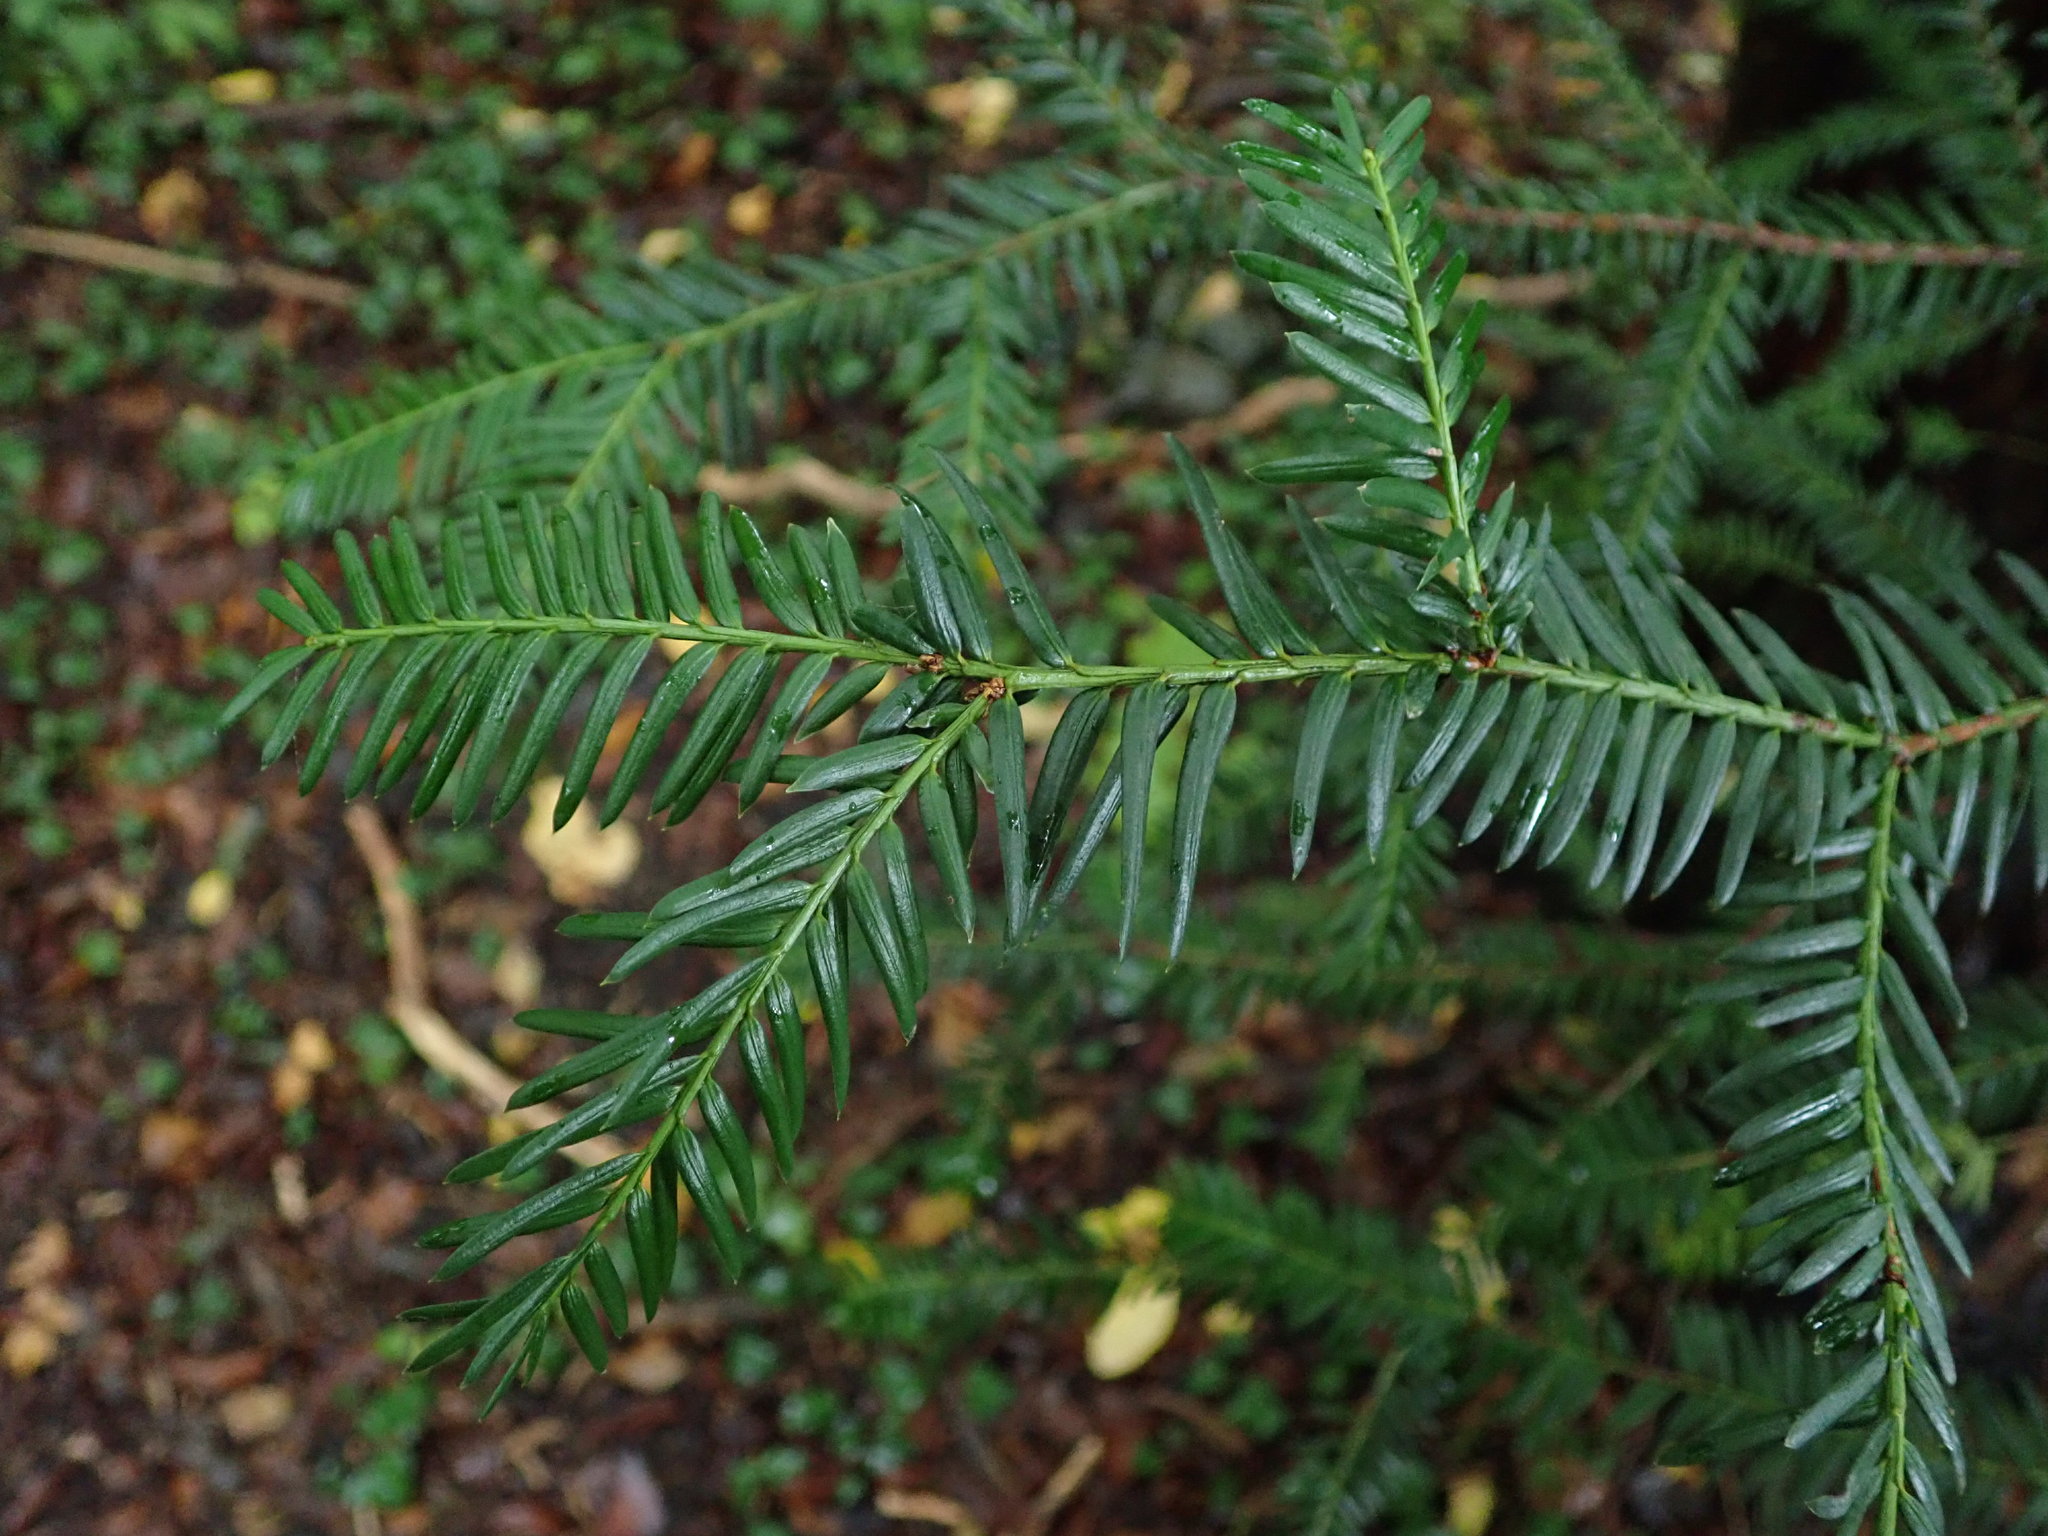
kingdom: Plantae
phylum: Tracheophyta
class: Pinopsida
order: Pinales
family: Taxaceae
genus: Taxus
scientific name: Taxus baccata
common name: Yew
